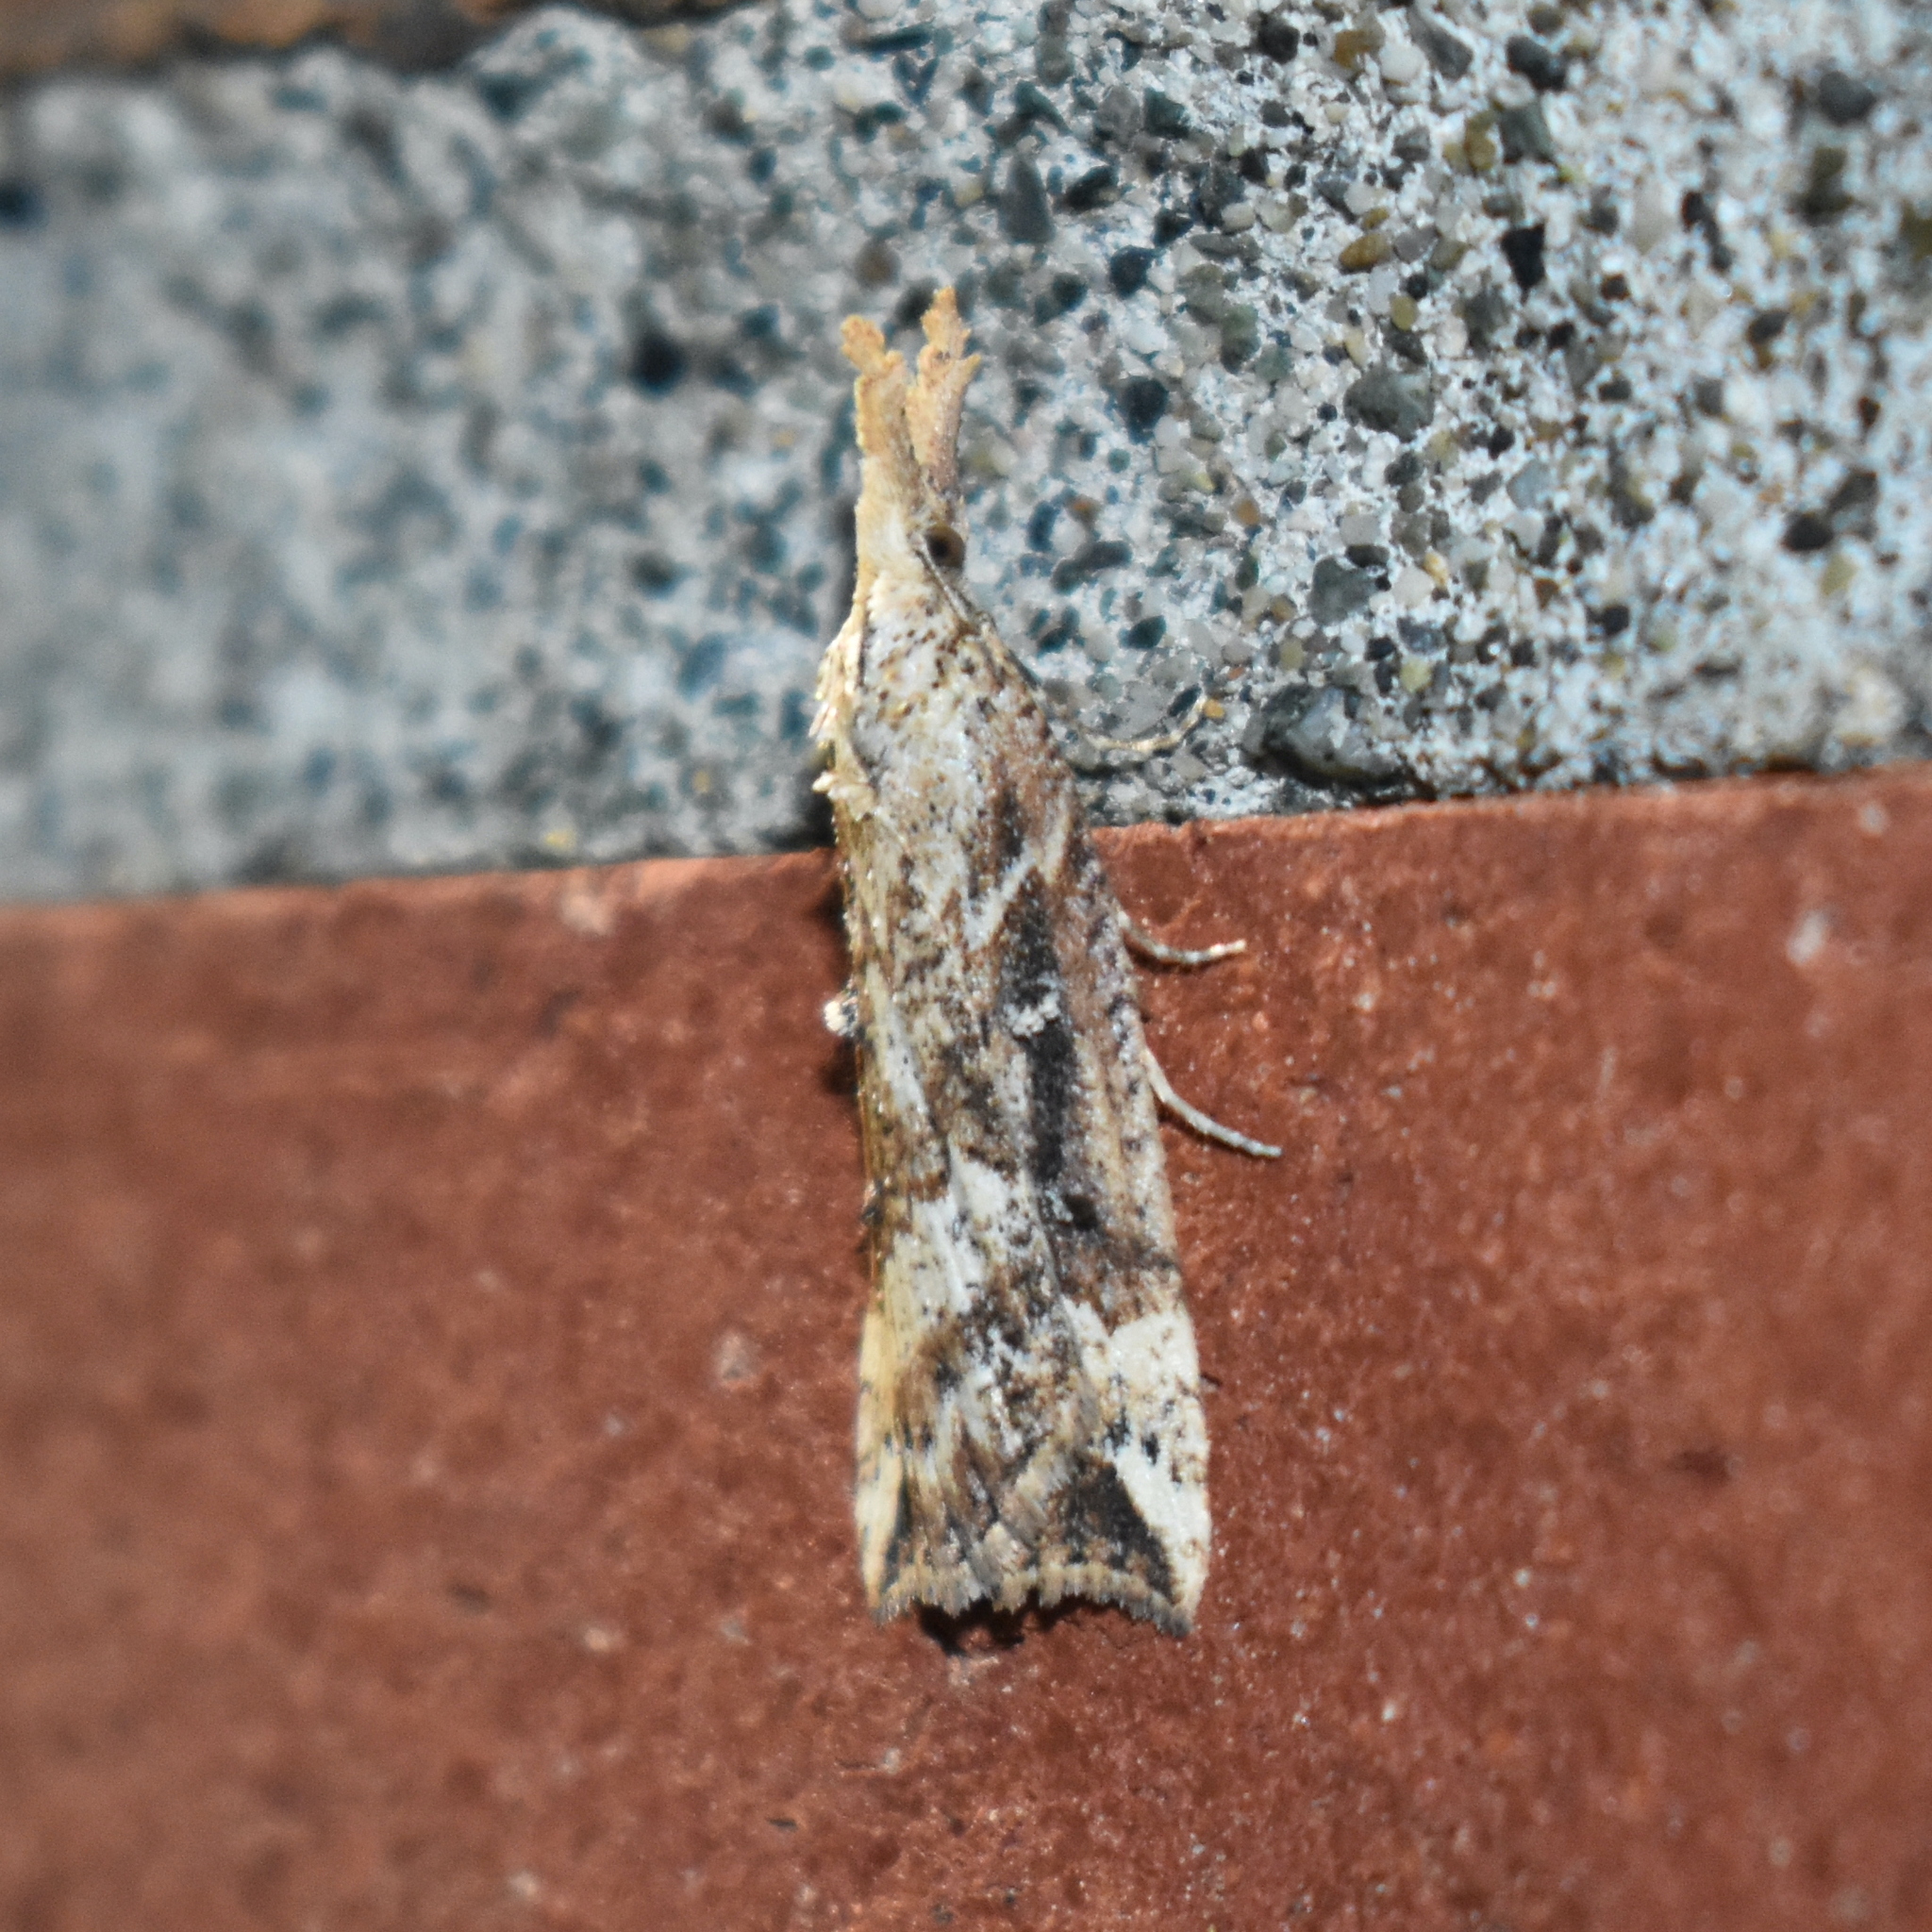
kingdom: Animalia
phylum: Arthropoda
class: Insecta
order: Lepidoptera
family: Erebidae
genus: Hypena
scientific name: Hypena californica
